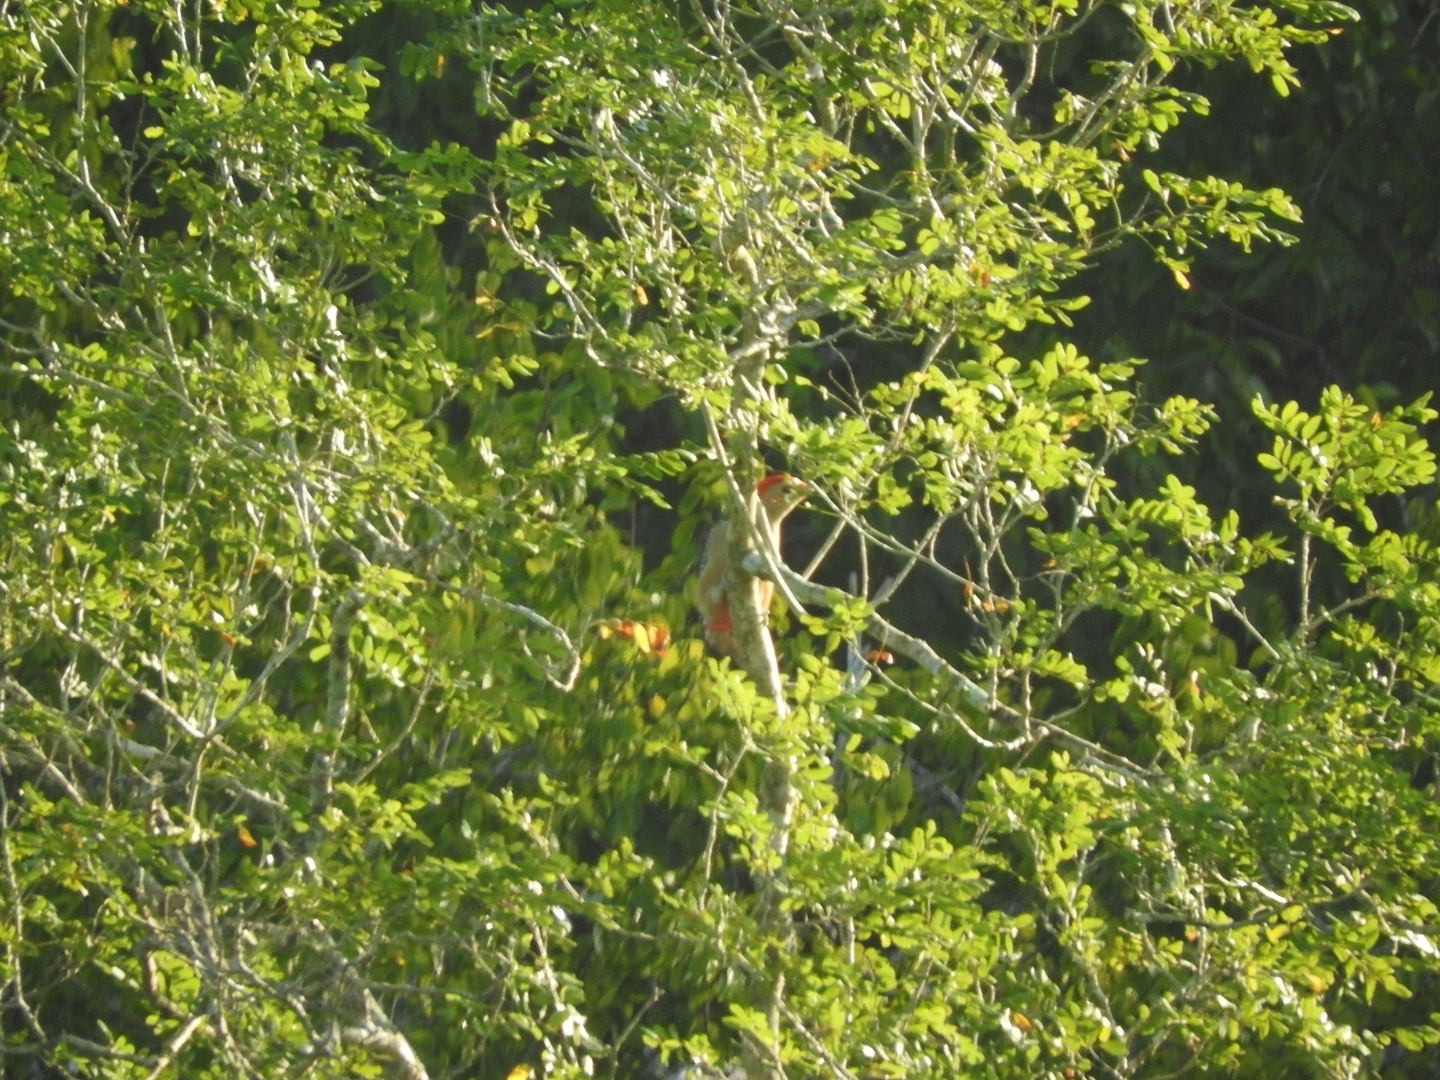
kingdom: Animalia
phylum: Chordata
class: Aves
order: Piciformes
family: Picidae
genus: Melanerpes
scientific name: Melanerpes aurifrons
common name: Golden-fronted woodpecker
